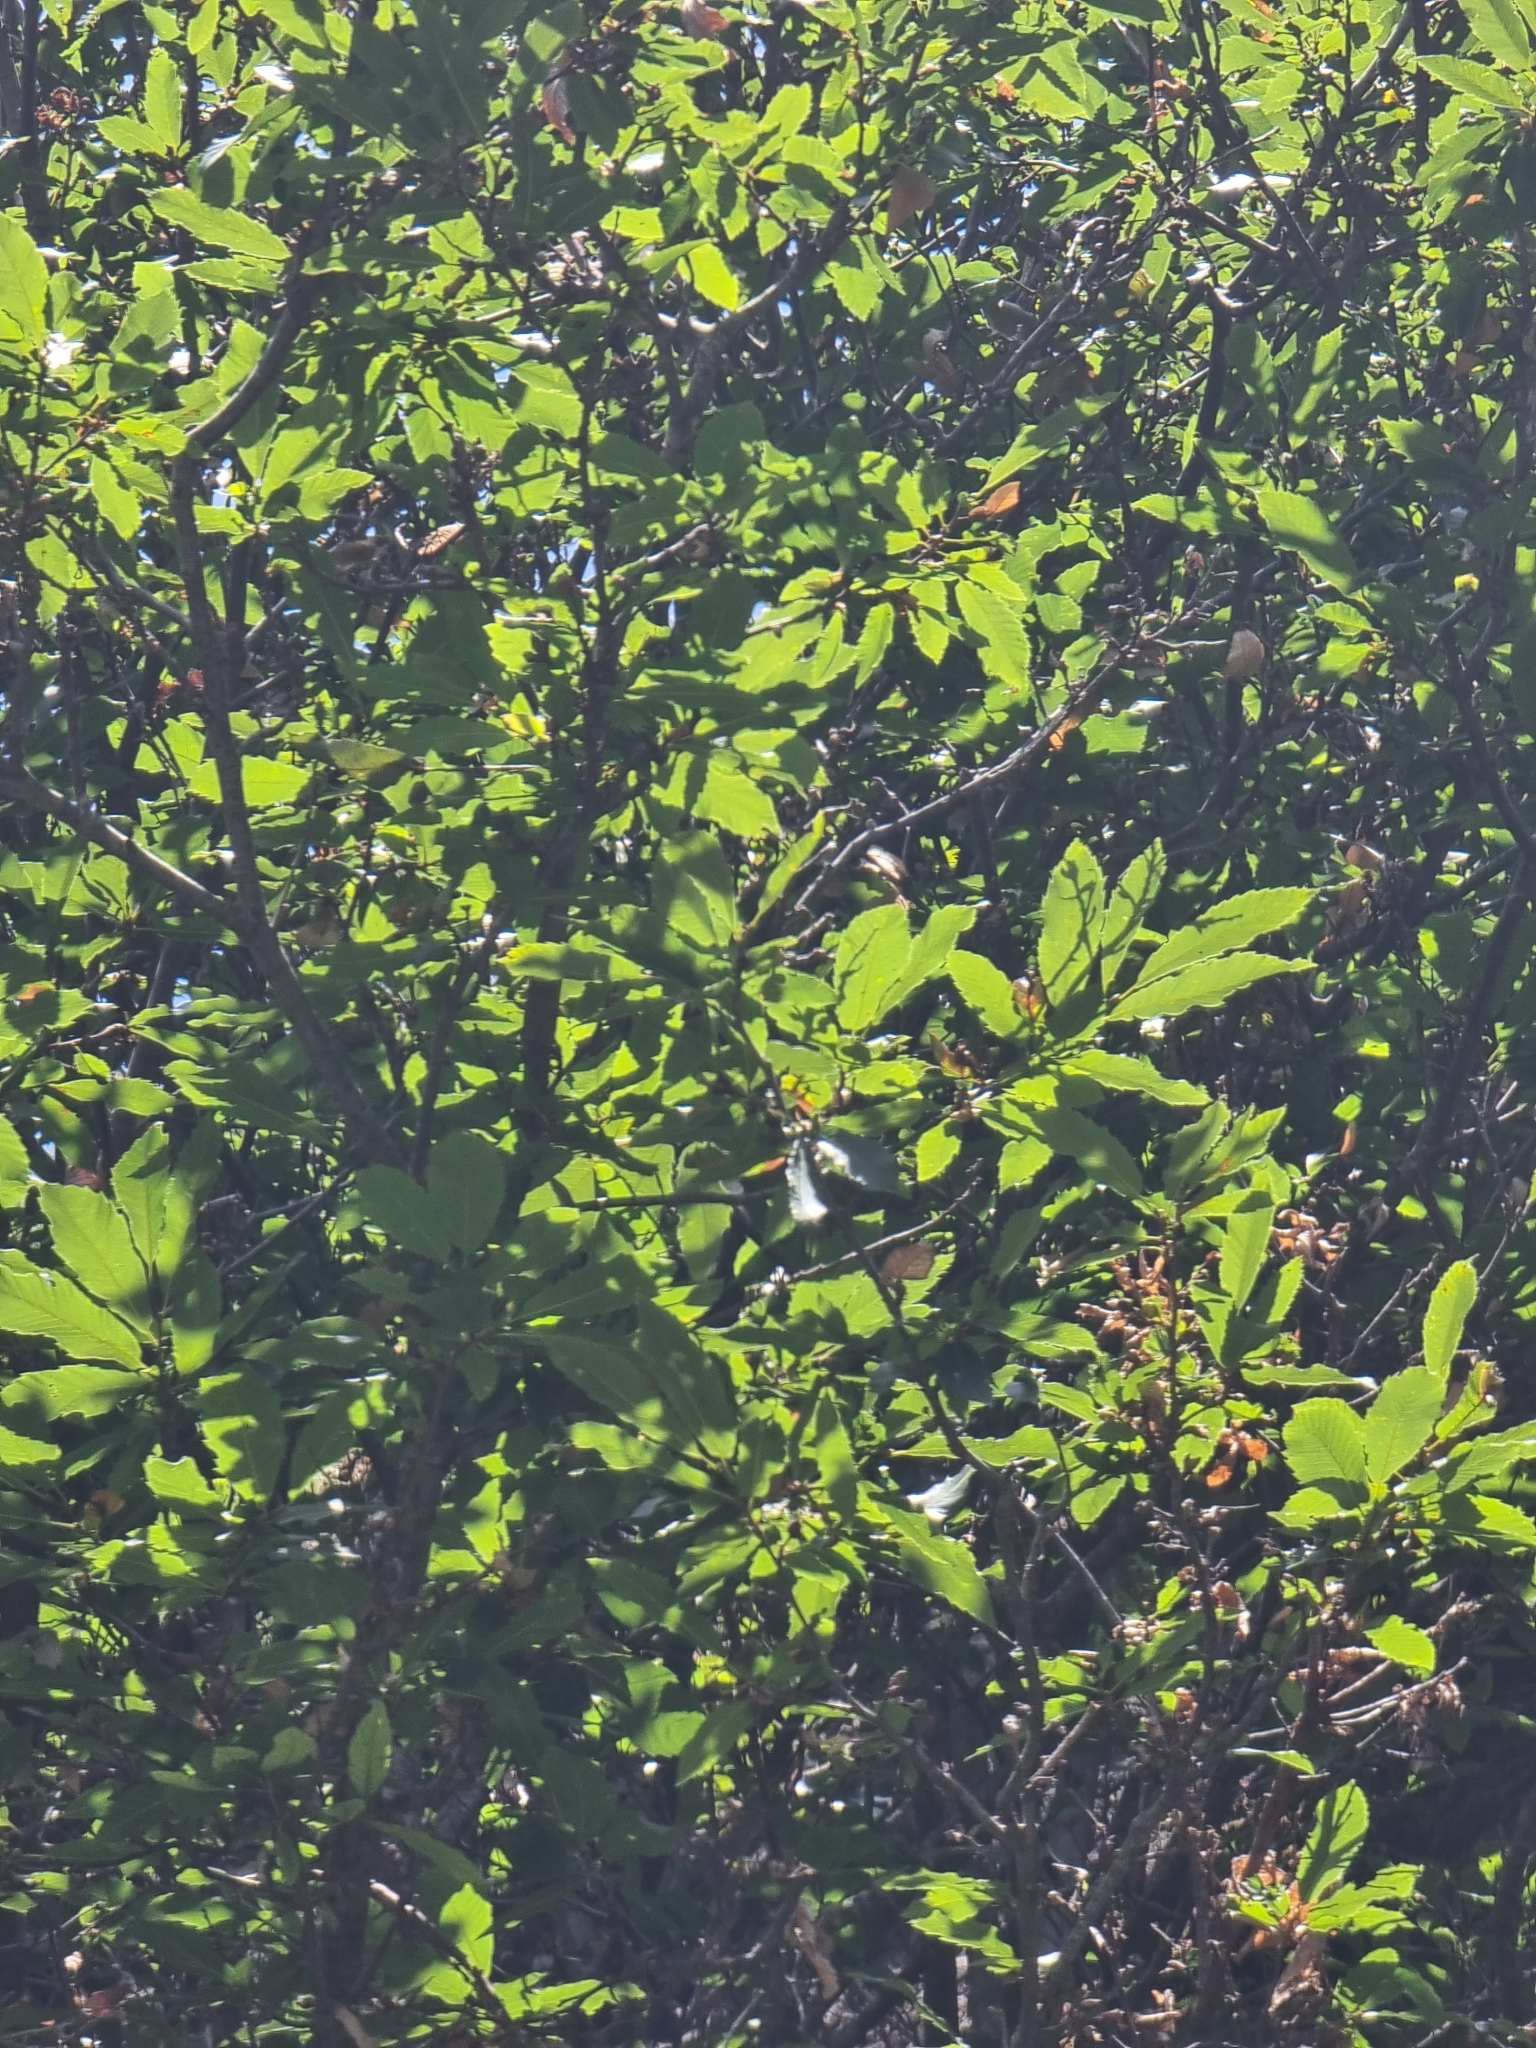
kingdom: Plantae
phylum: Tracheophyta
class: Magnoliopsida
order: Fagales
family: Fagaceae
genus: Castanea
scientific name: Castanea sativa
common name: Sweet chestnut
